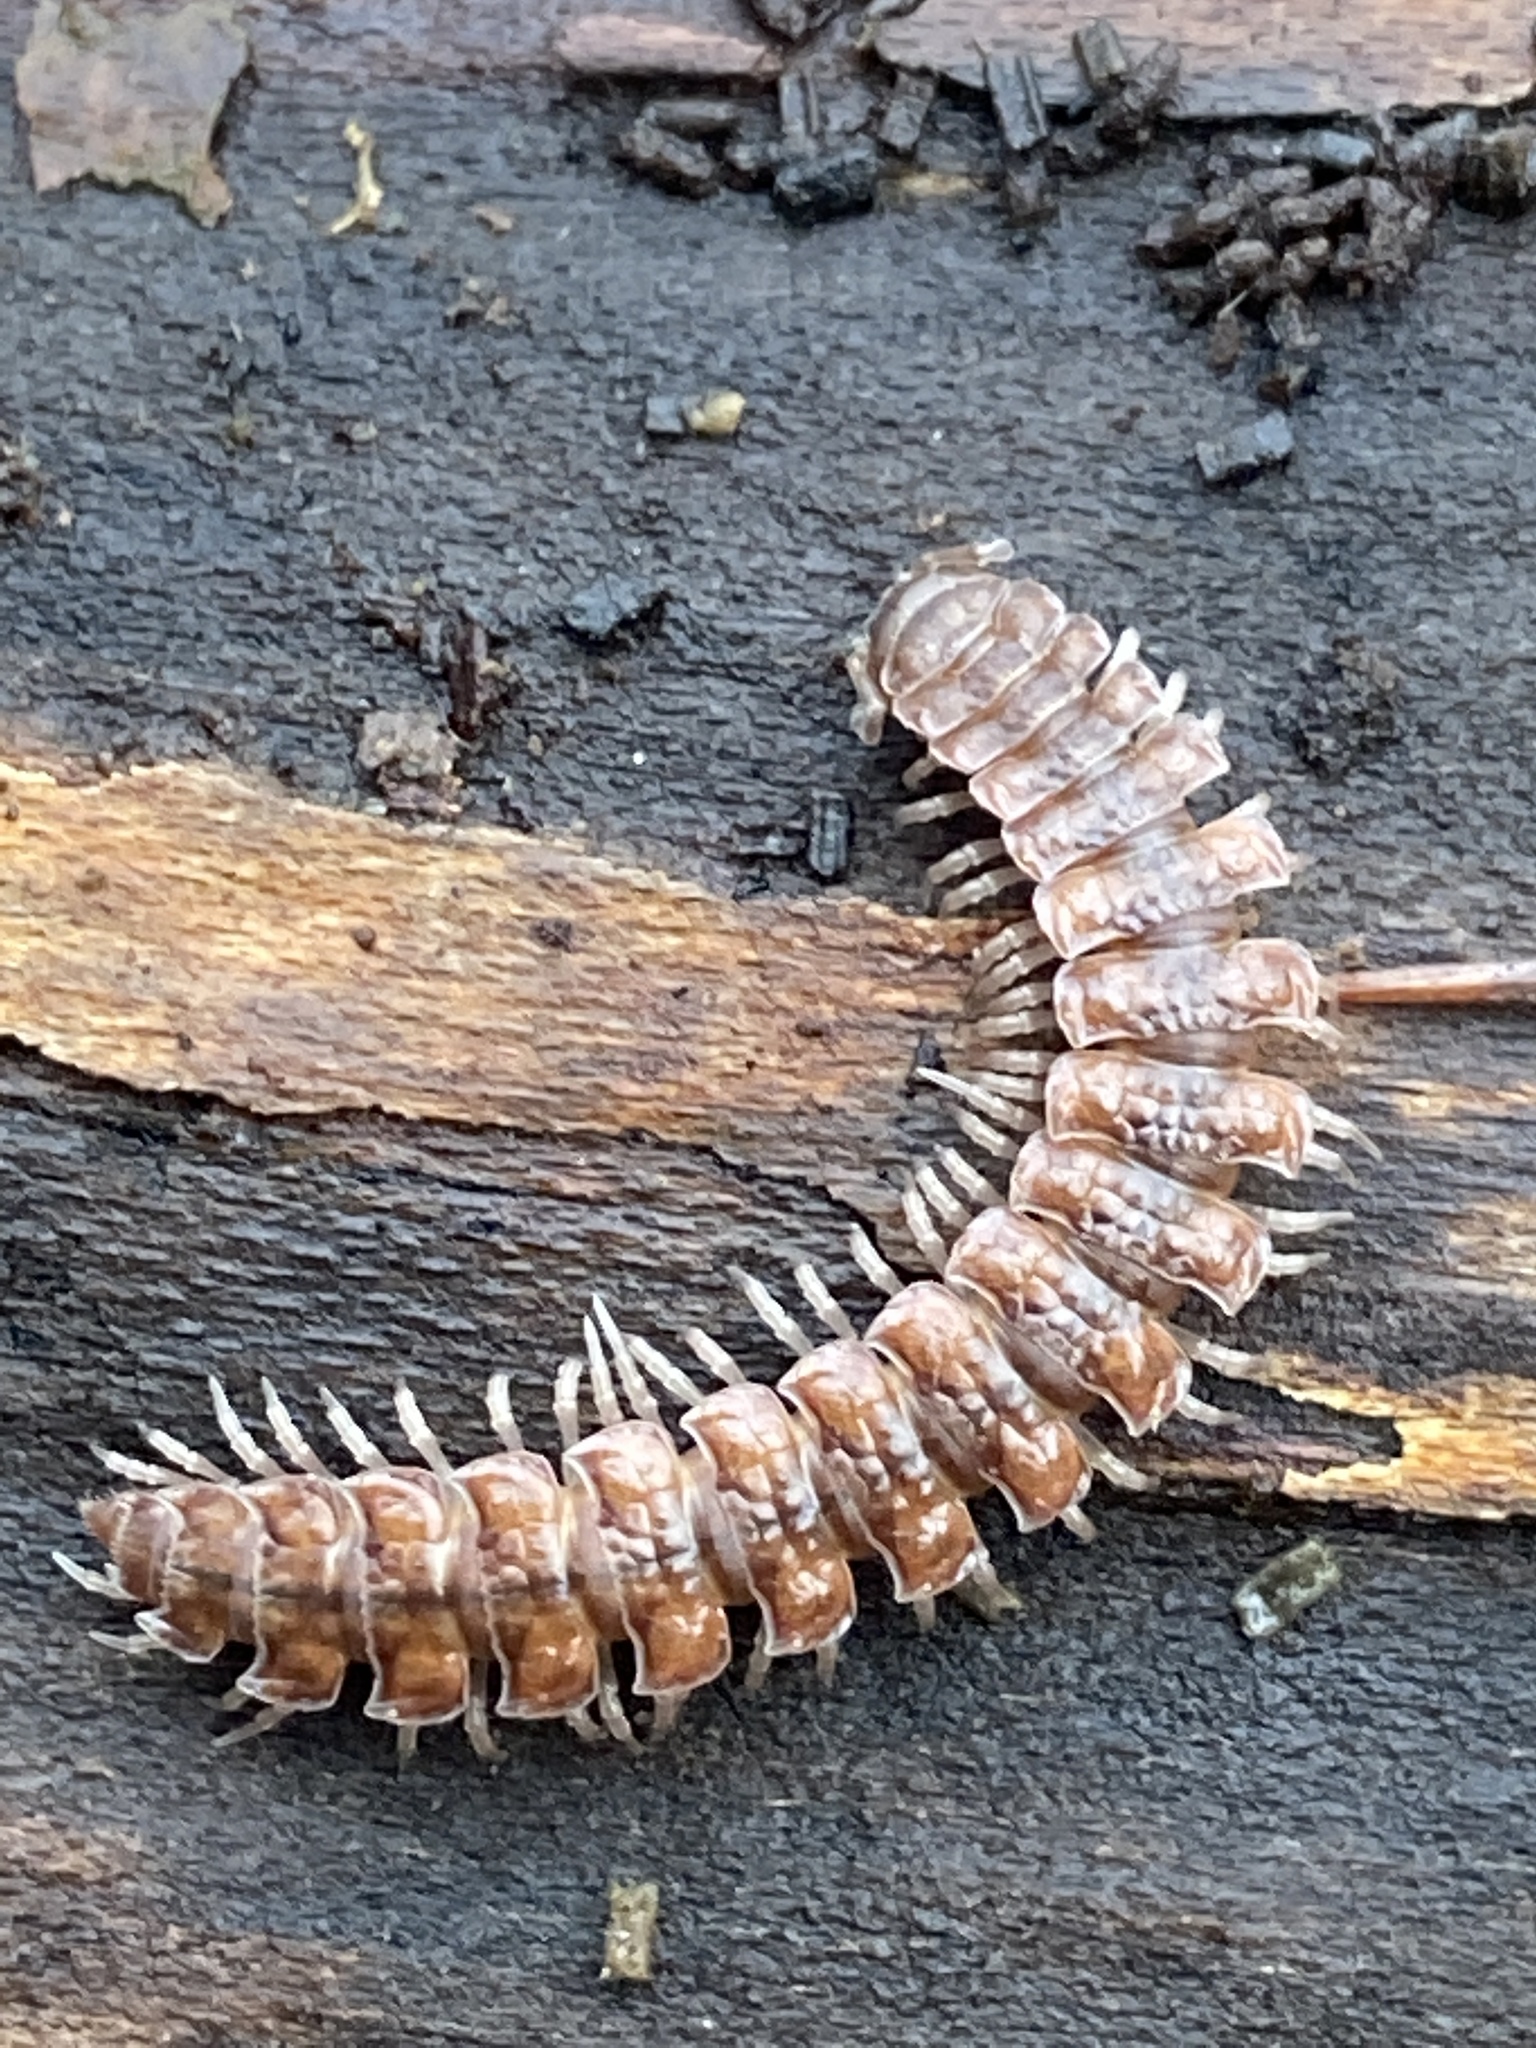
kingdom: Animalia
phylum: Arthropoda
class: Diplopoda
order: Polydesmida
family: Polydesmidae
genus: Polydesmus
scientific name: Polydesmus complanatus
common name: Flat-backed millipede
